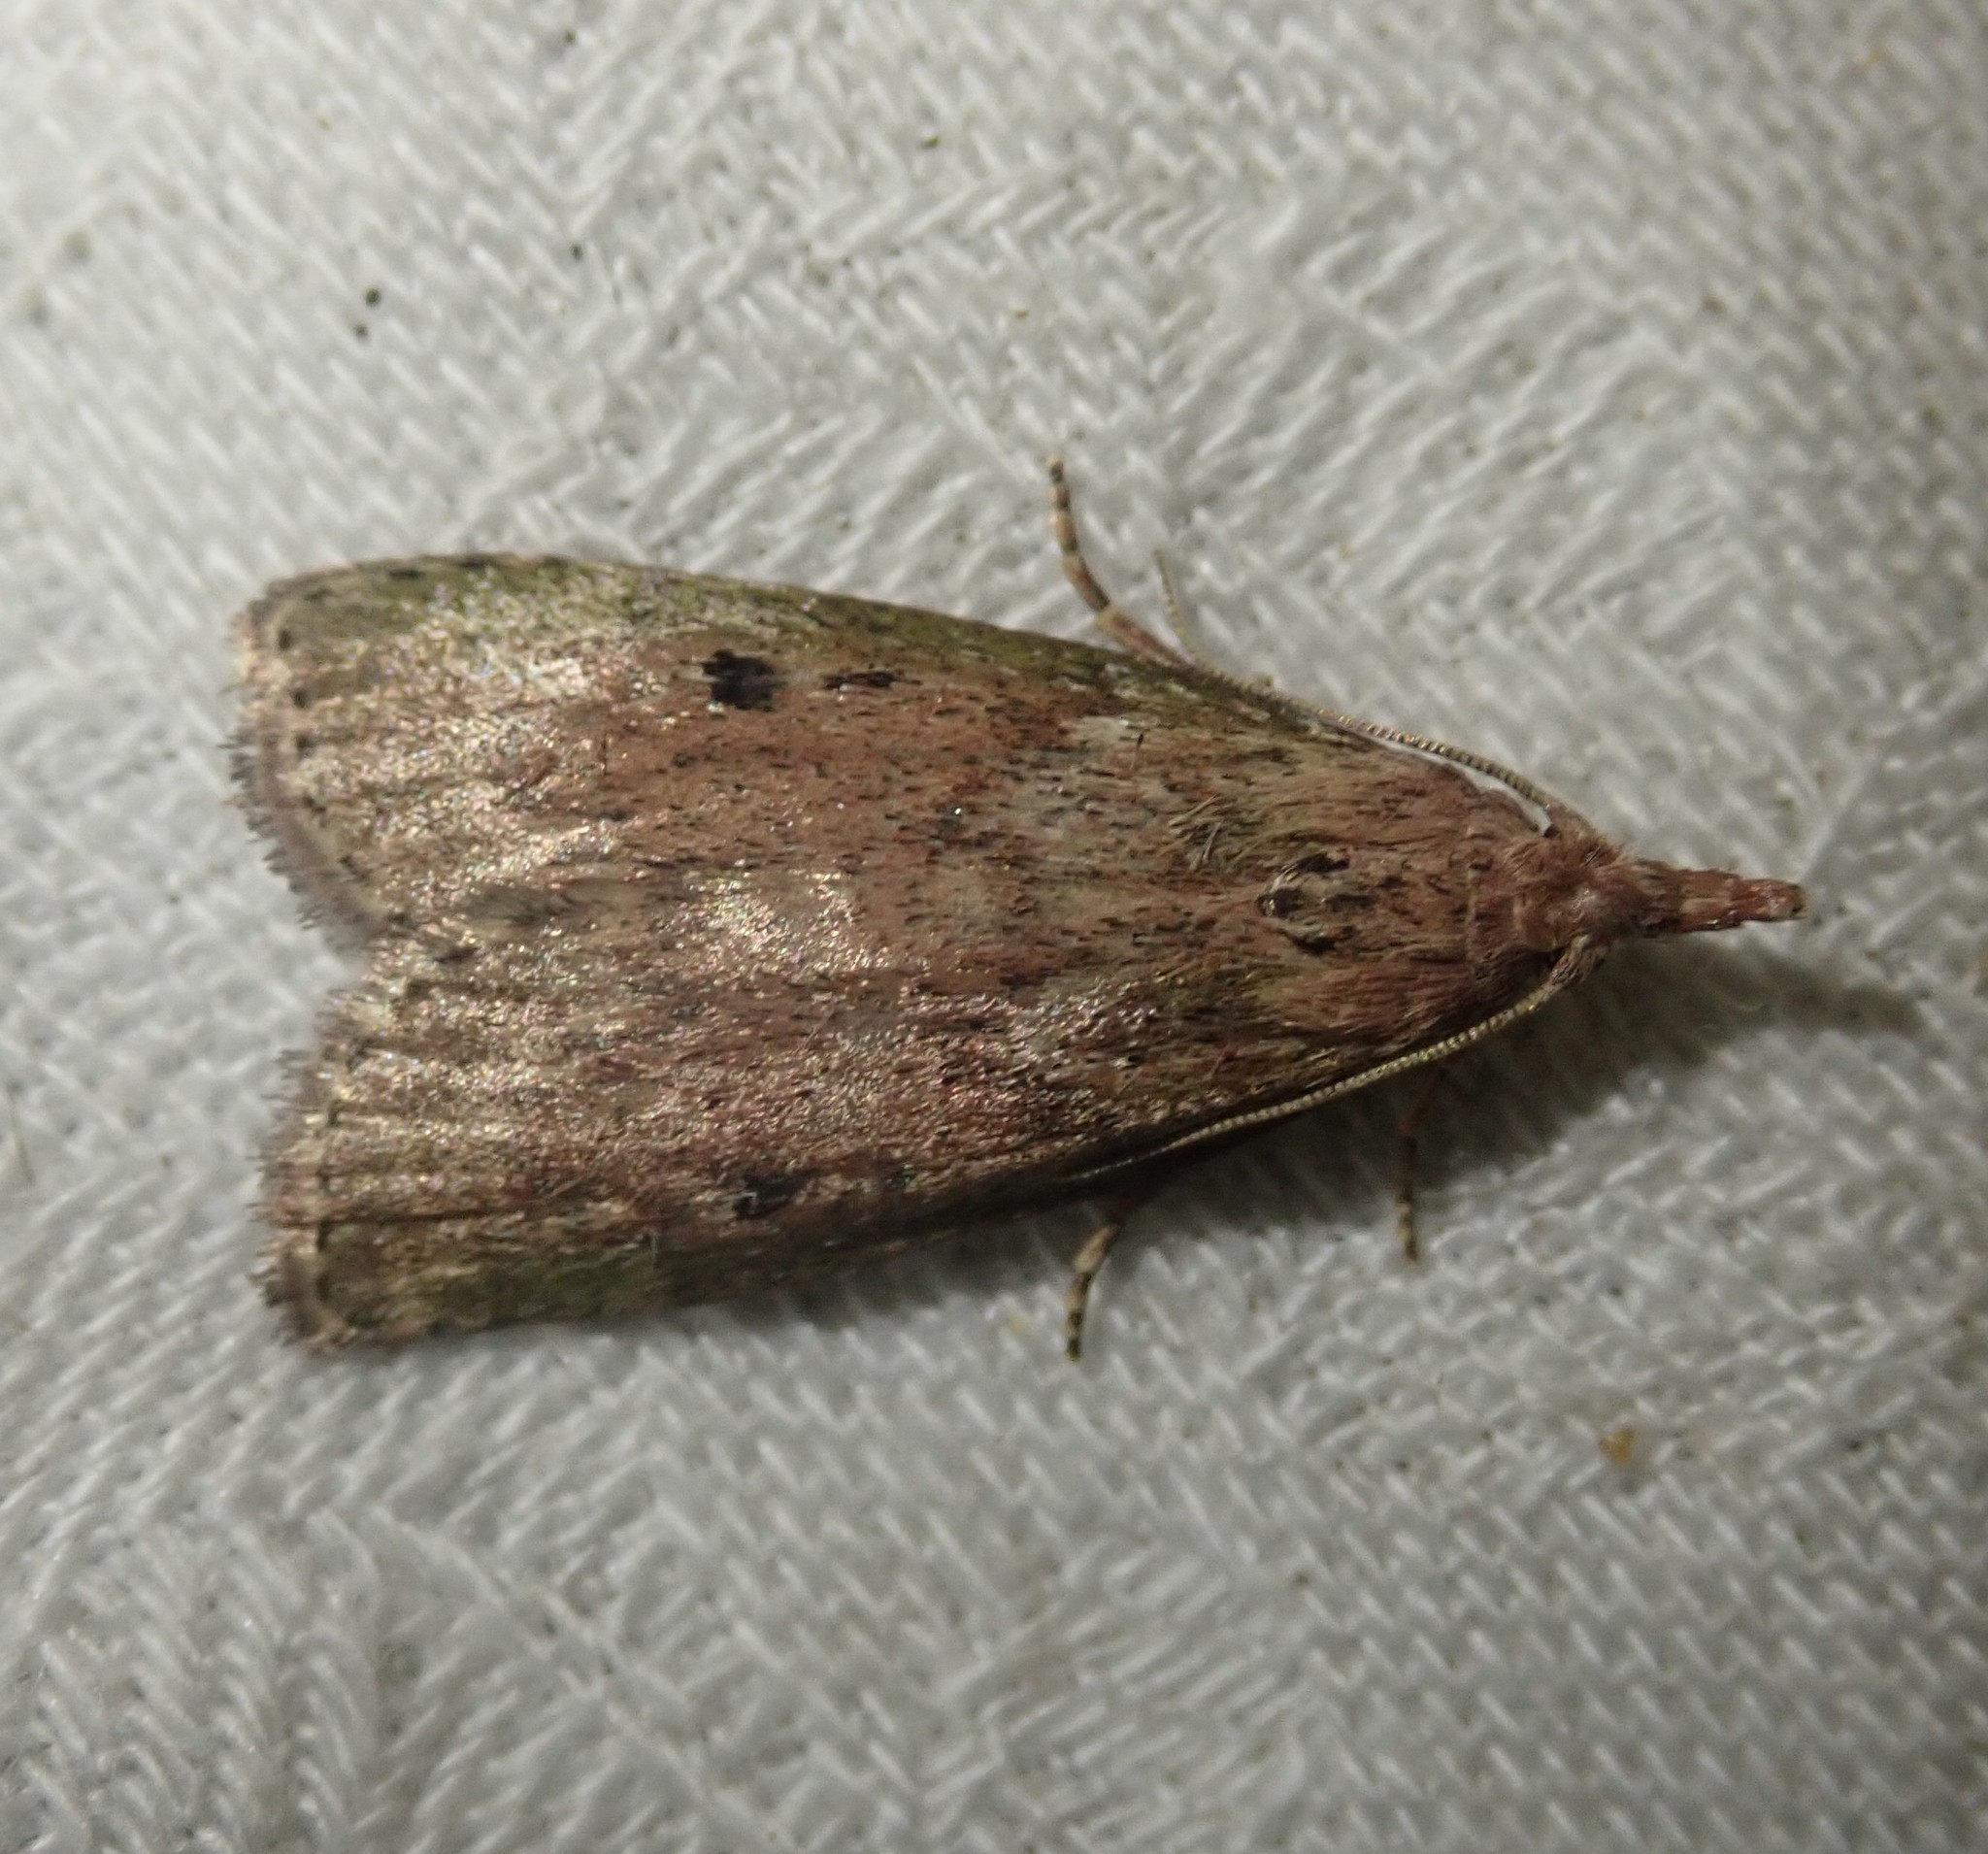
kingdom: Animalia
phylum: Arthropoda
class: Insecta
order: Lepidoptera
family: Pyralidae
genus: Aphomia
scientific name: Aphomia sociella
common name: Bee moth
